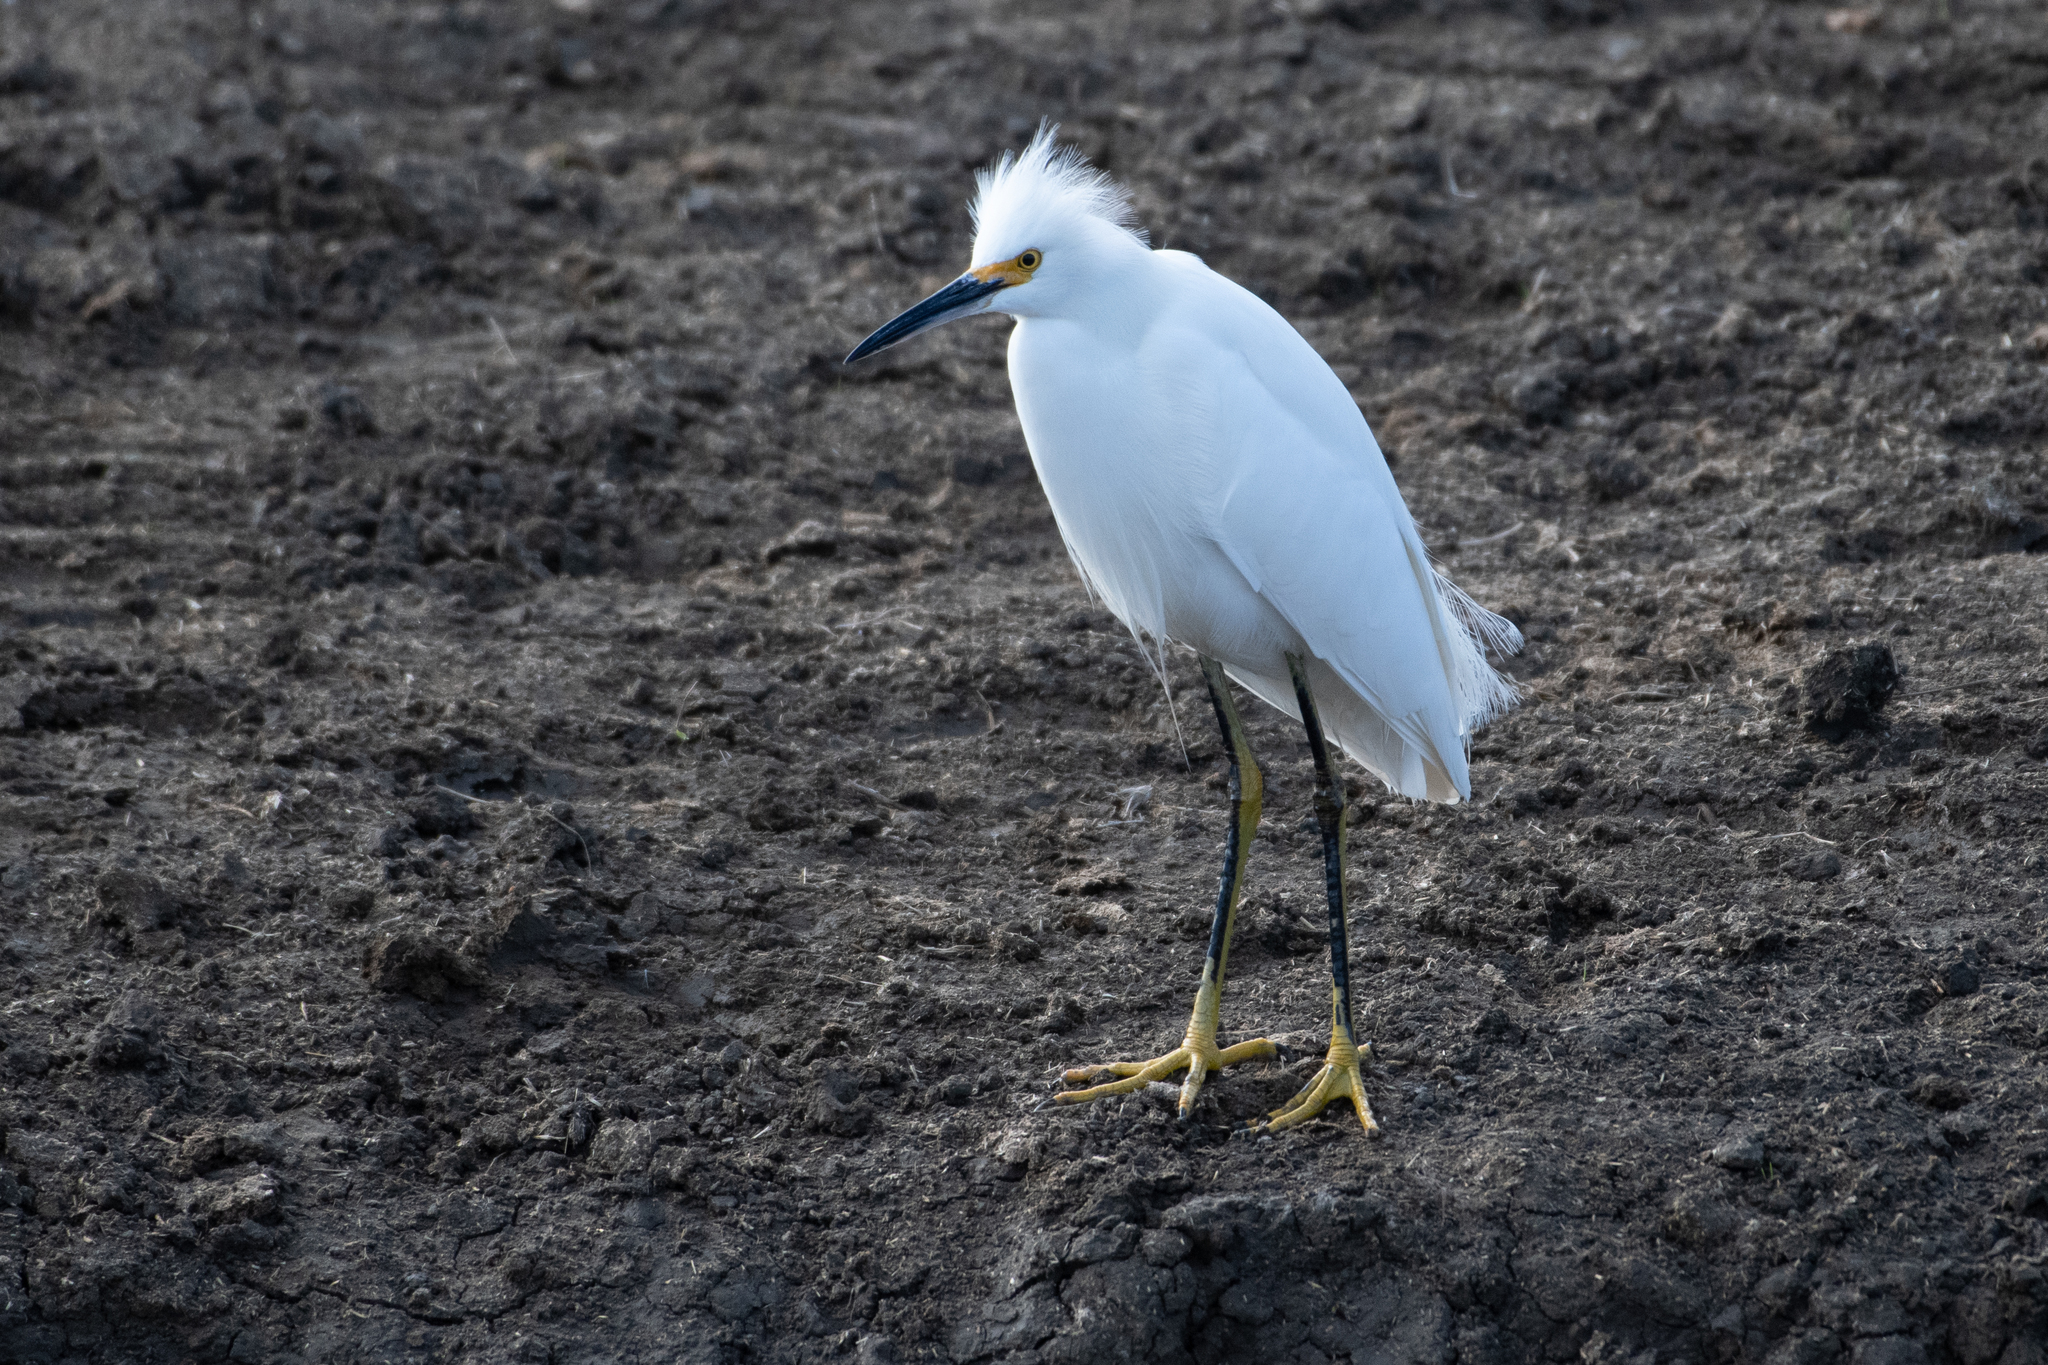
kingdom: Animalia
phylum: Chordata
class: Aves
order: Pelecaniformes
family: Ardeidae
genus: Egretta
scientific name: Egretta thula
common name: Snowy egret
